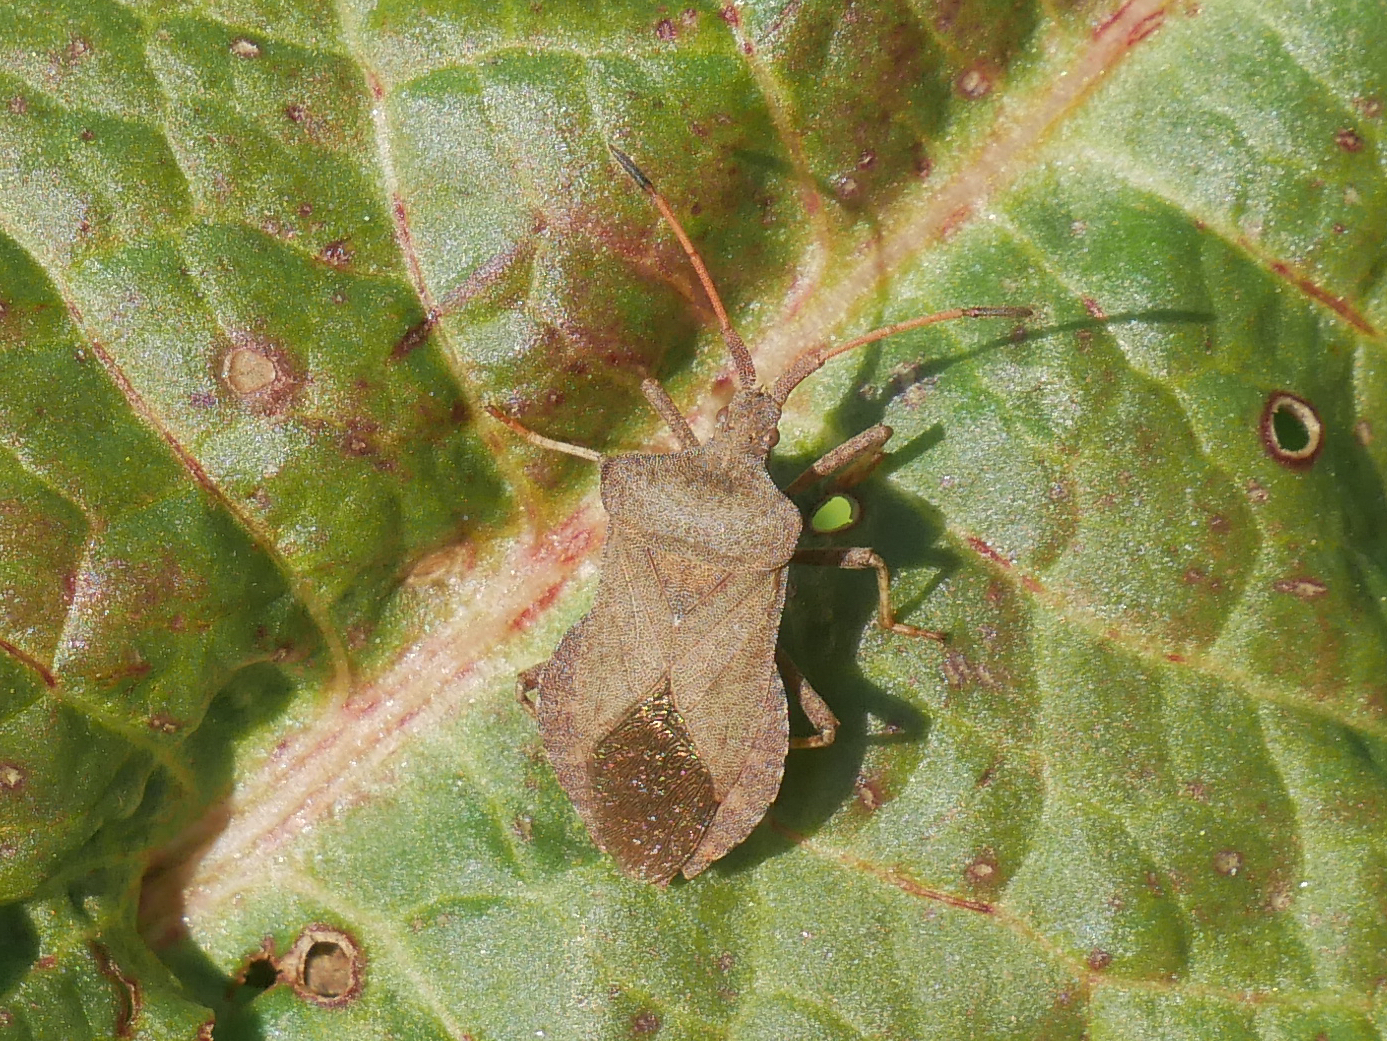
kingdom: Animalia
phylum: Arthropoda
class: Insecta
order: Hemiptera
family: Coreidae
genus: Coreus
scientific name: Coreus marginatus
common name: Dock bug
